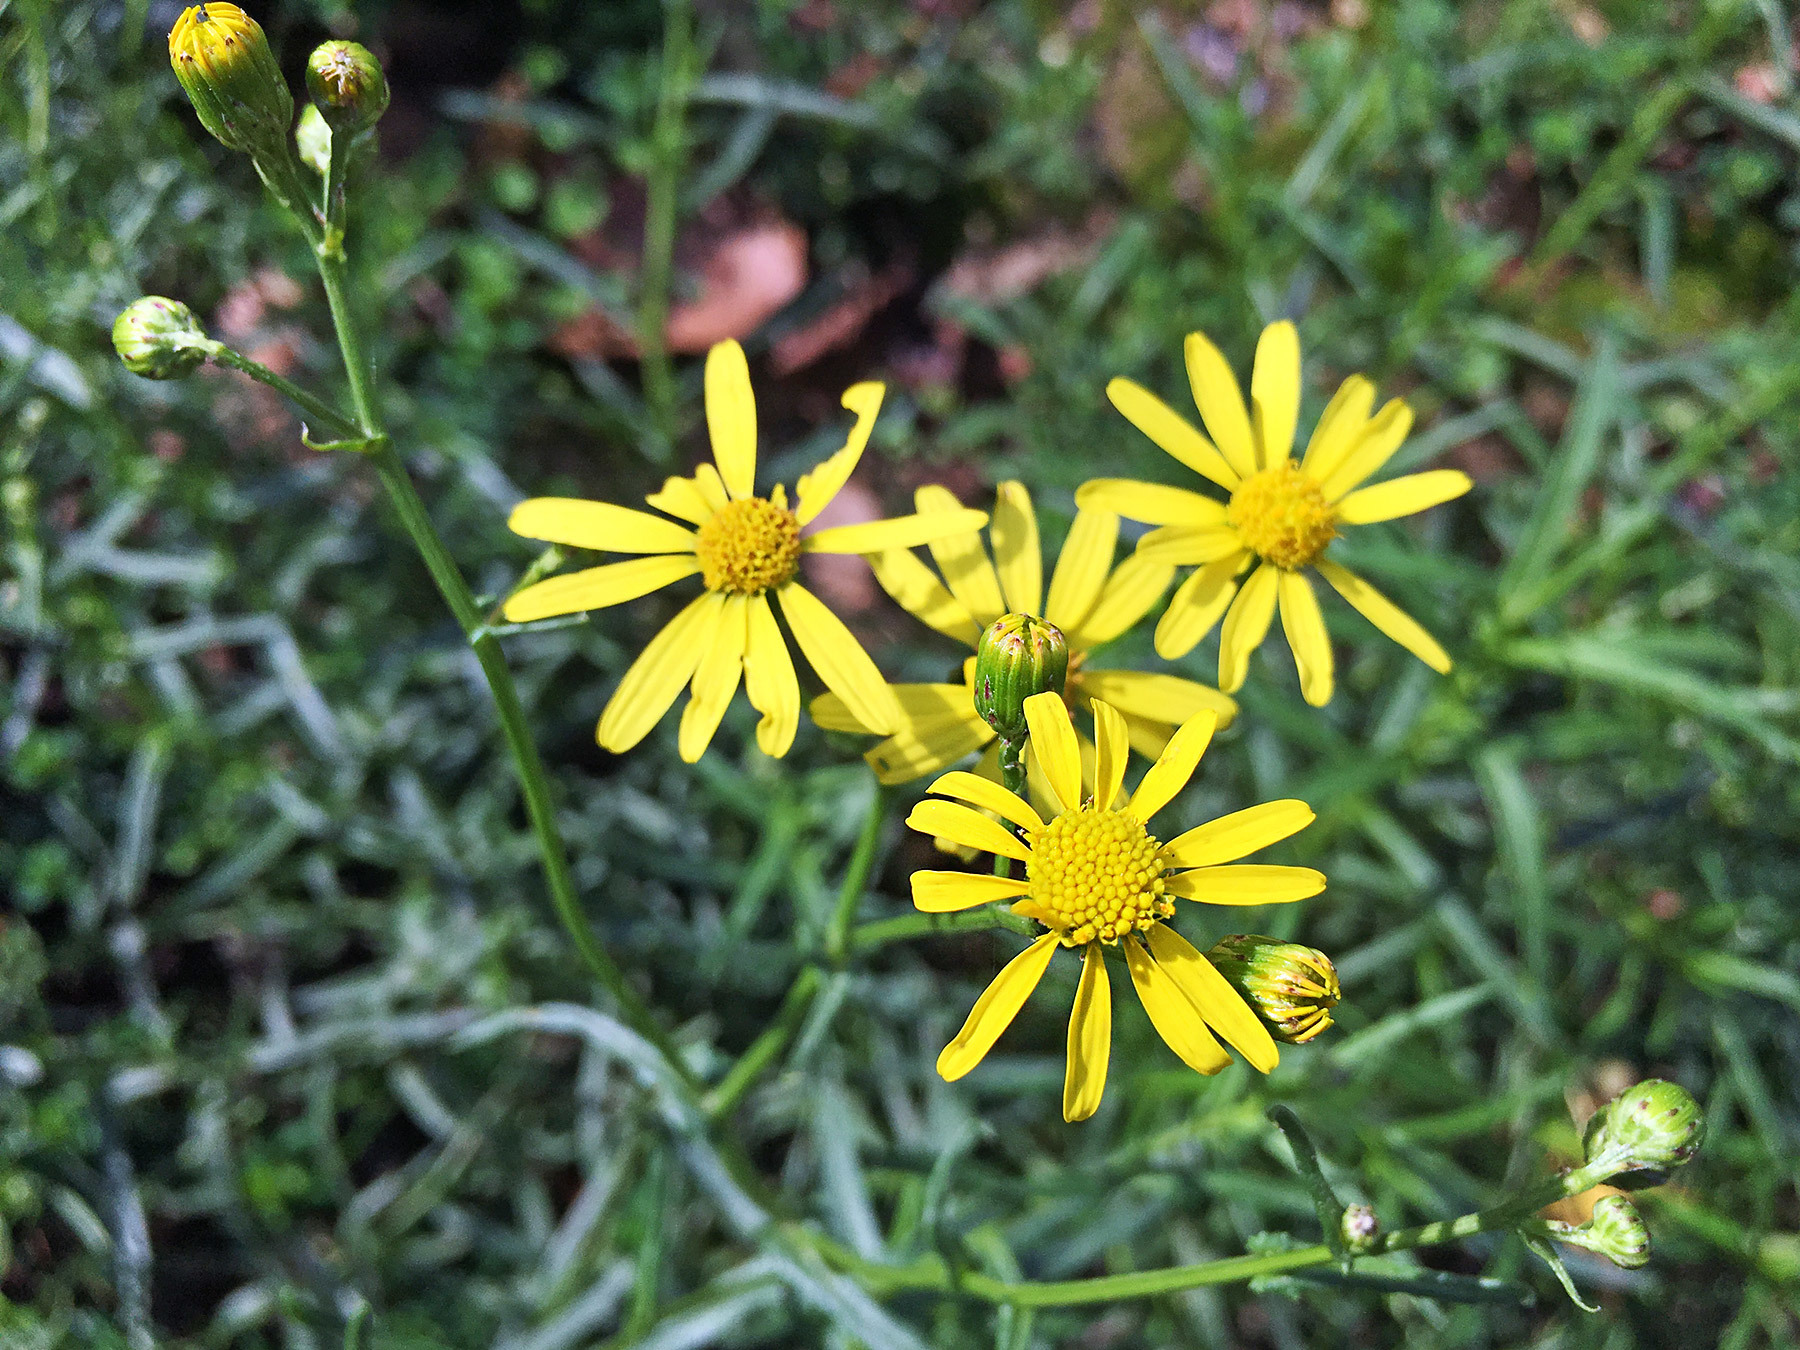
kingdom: Plantae
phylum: Tracheophyta
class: Magnoliopsida
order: Asterales
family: Asteraceae
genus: Senecio
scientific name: Senecio inaequidens
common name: Narrow-leaved ragwort
